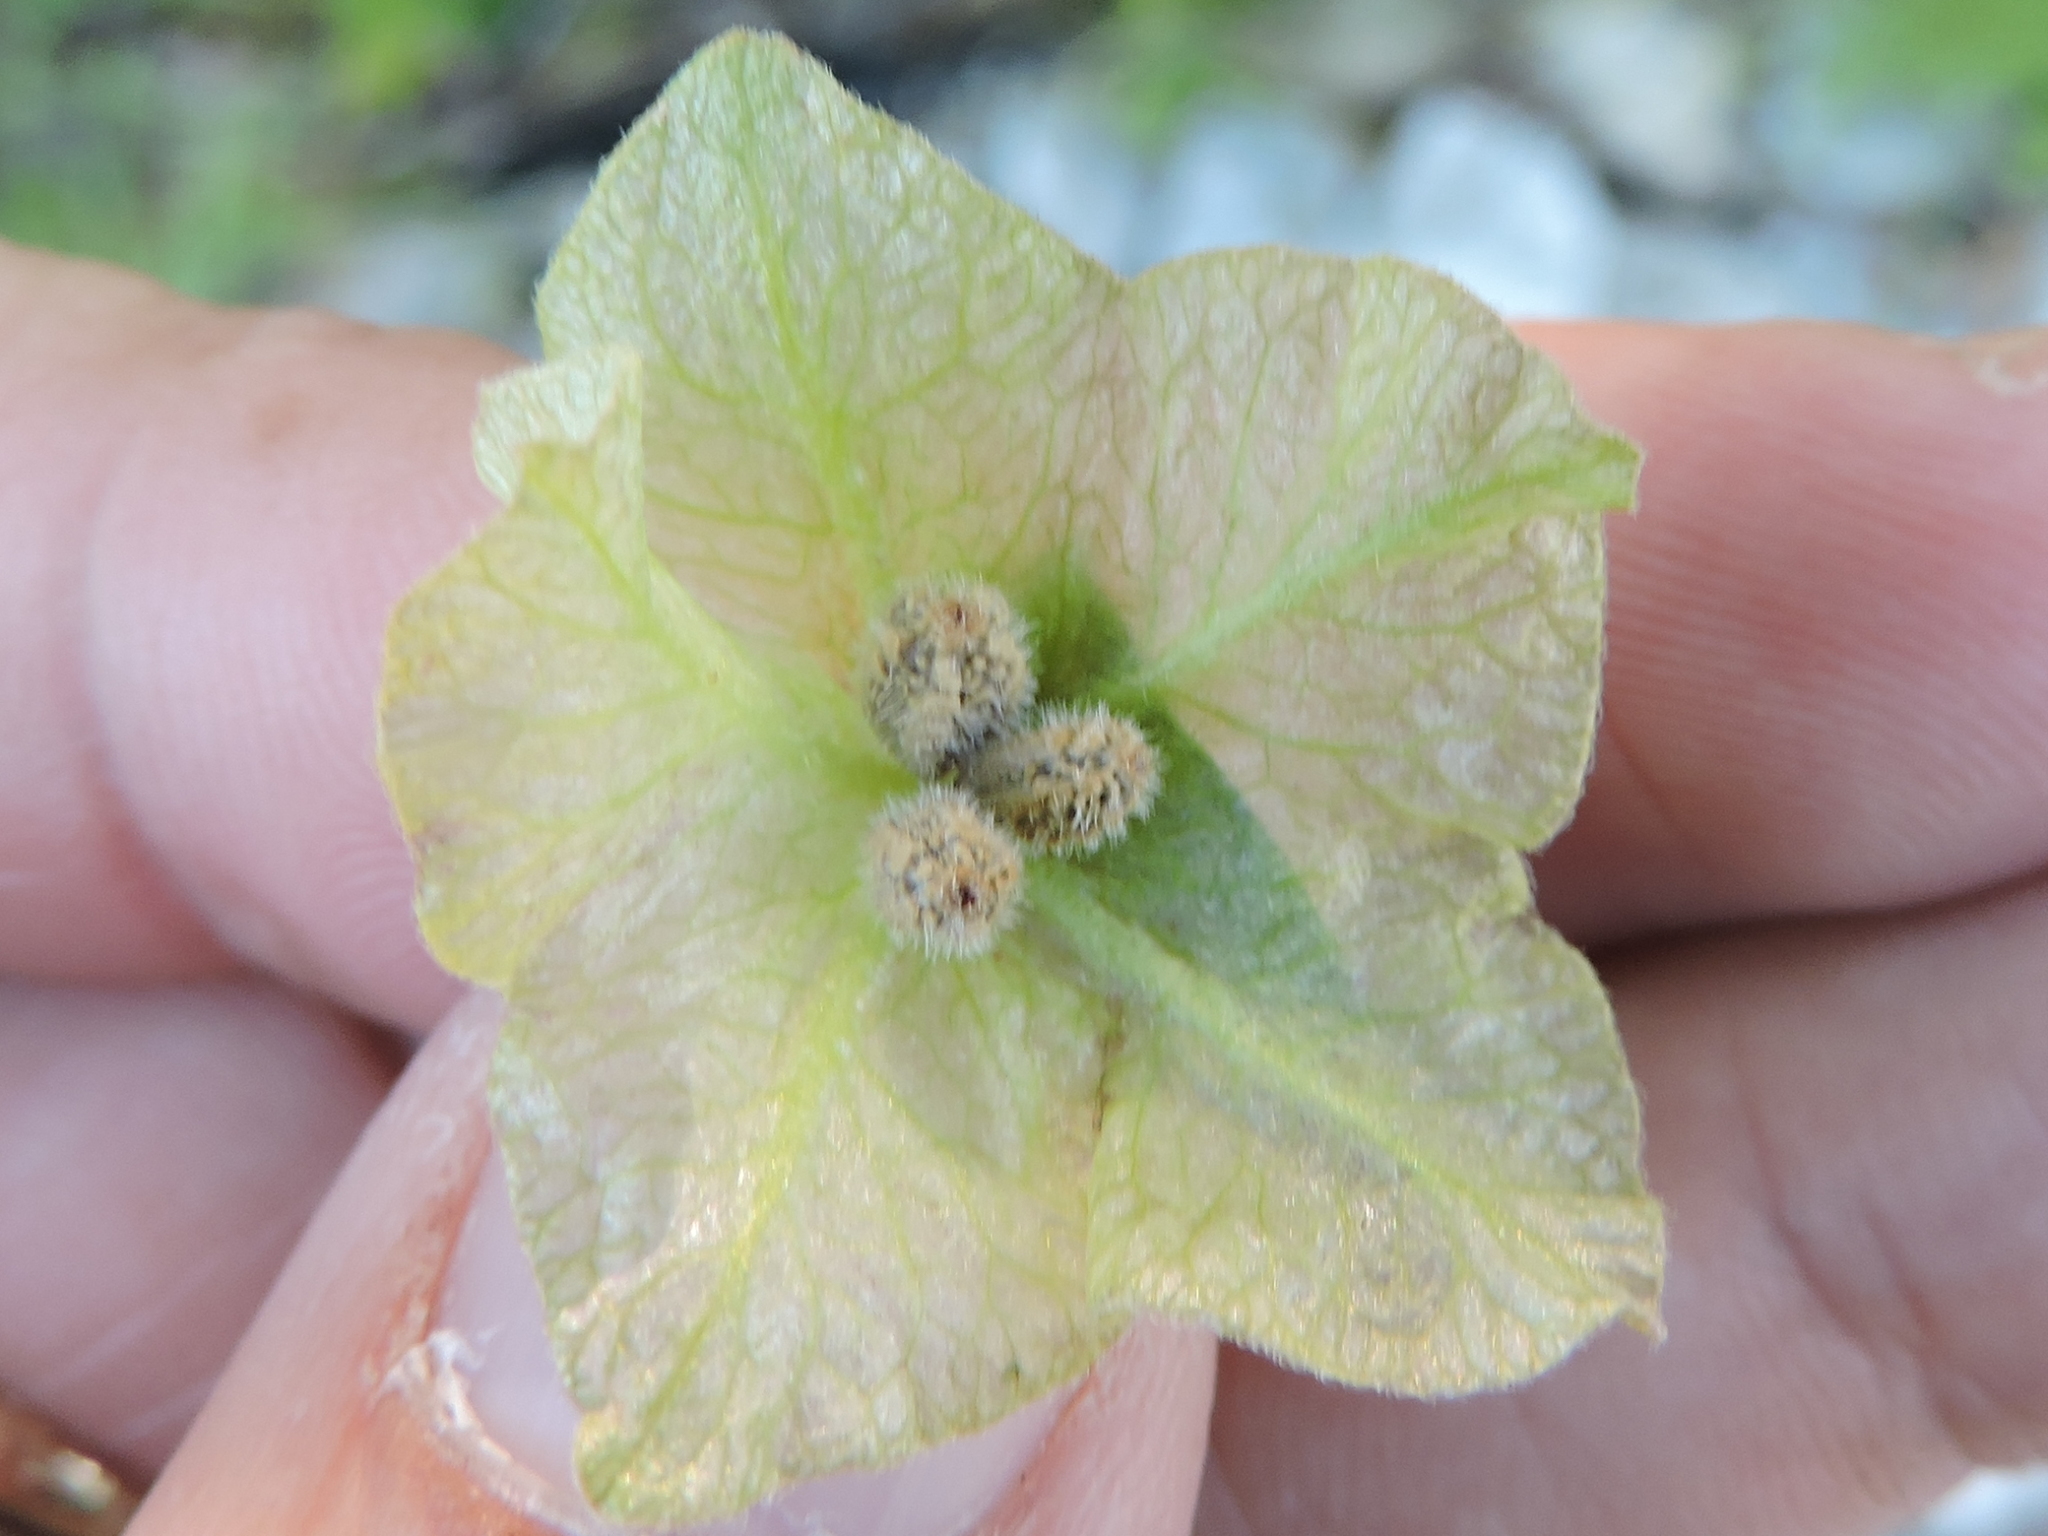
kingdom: Plantae
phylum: Tracheophyta
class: Magnoliopsida
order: Caryophyllales
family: Nyctaginaceae
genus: Mirabilis
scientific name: Mirabilis nyctaginea
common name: Umbrella wort
